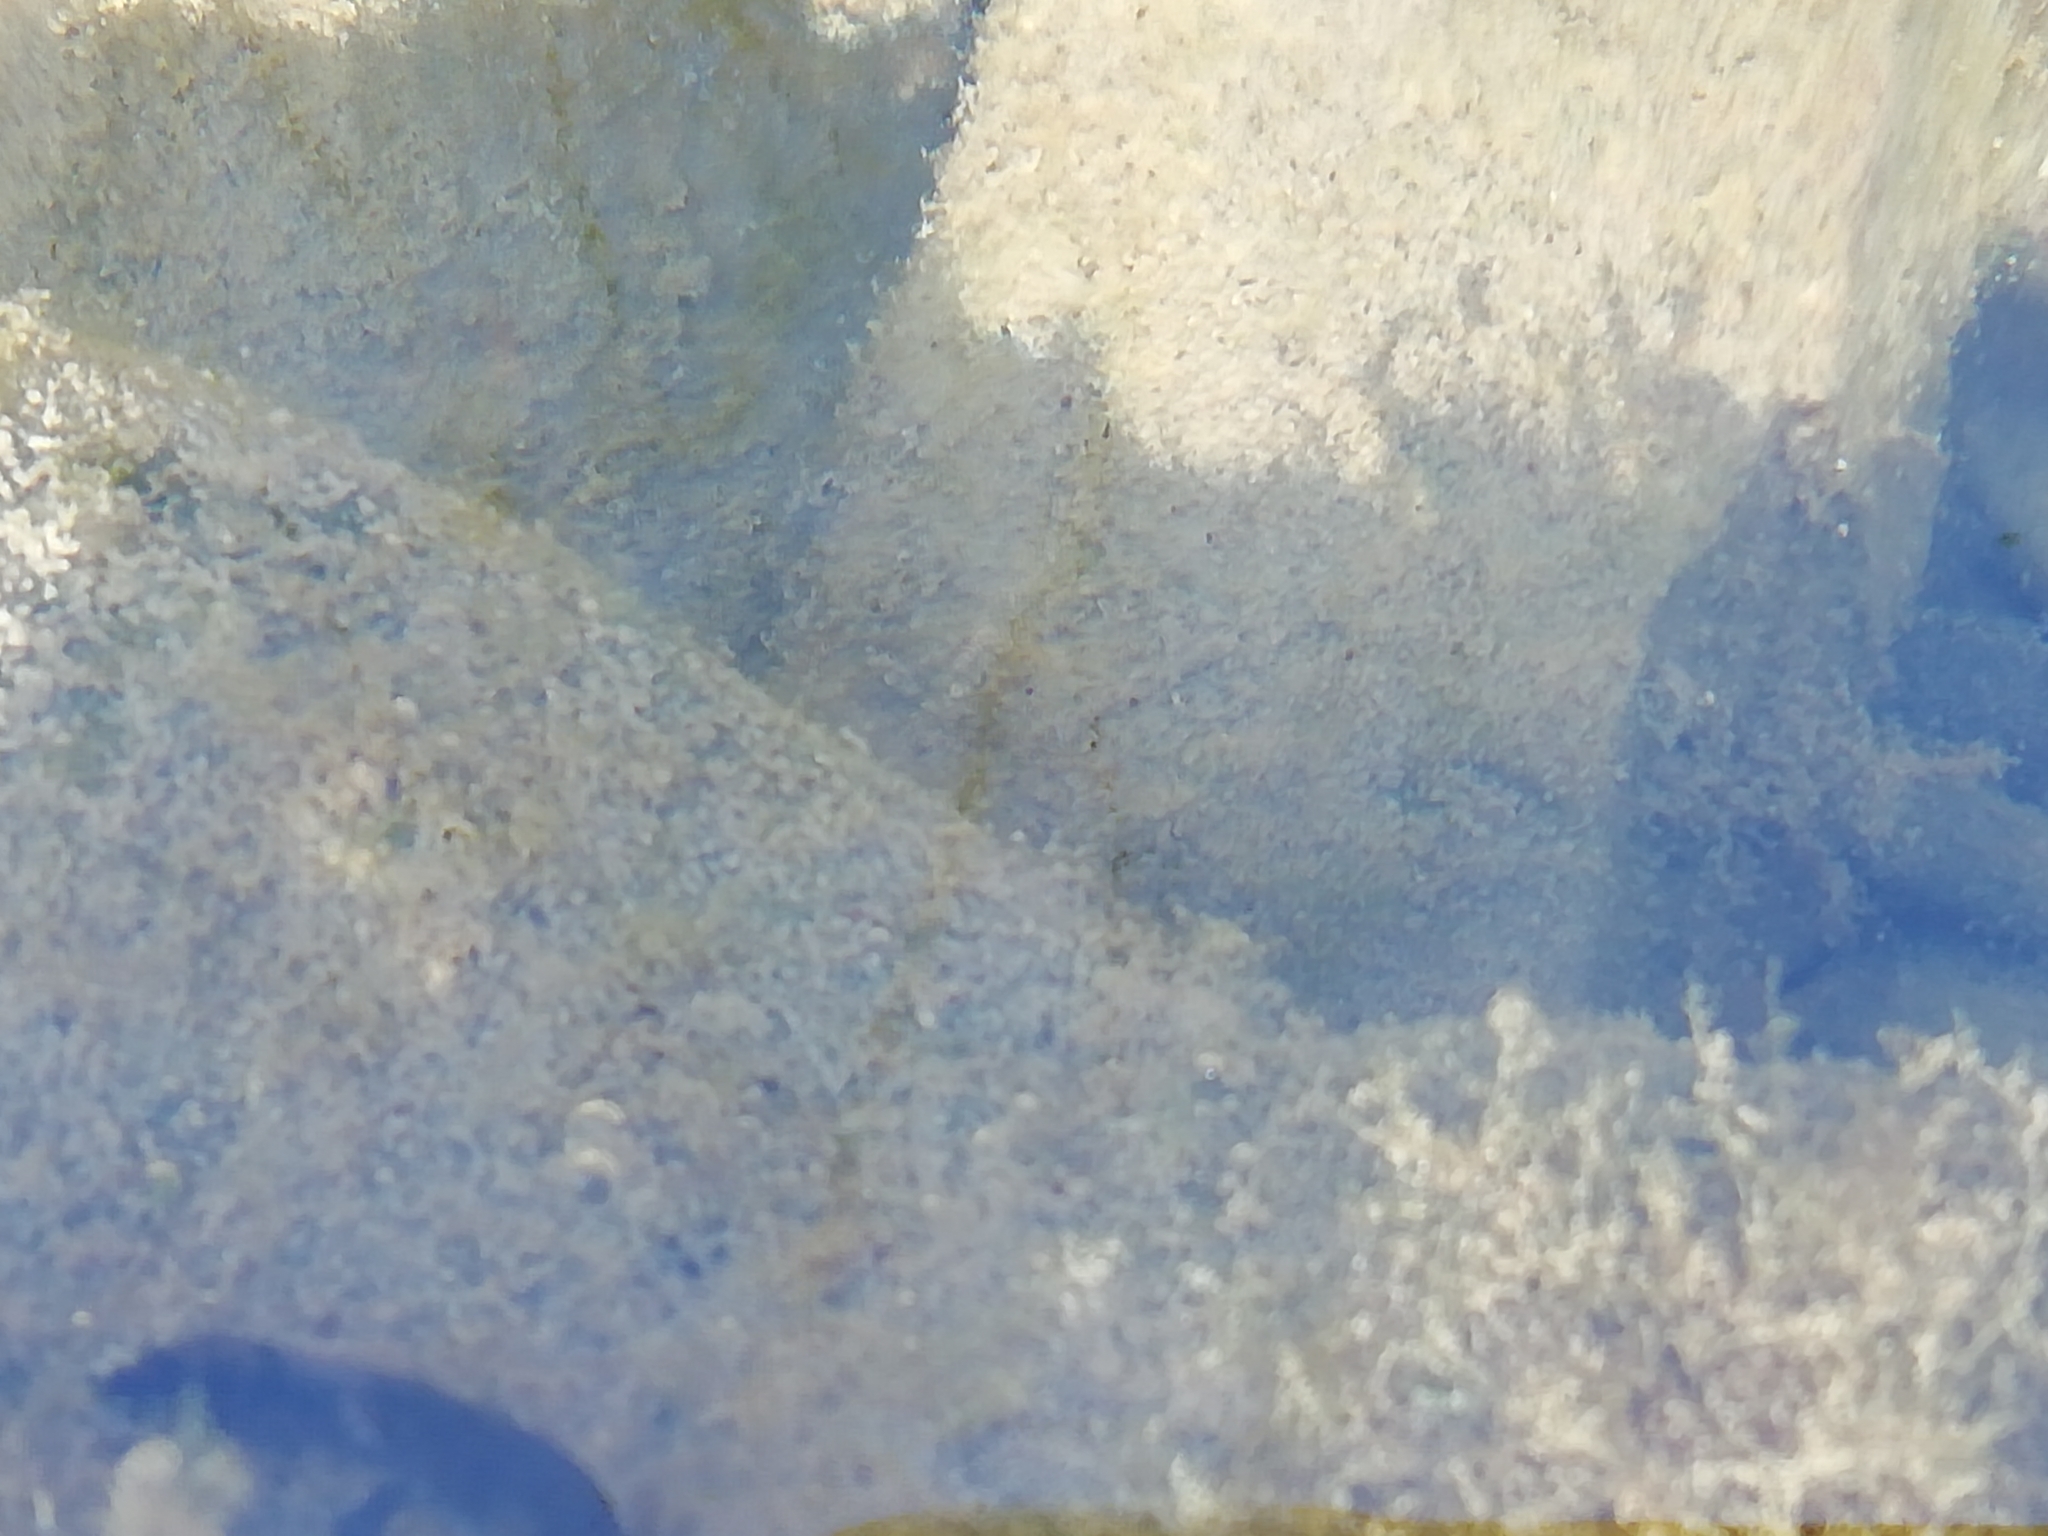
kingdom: Animalia
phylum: Chordata
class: Amphibia
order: Caudata
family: Salamandridae
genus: Salamandra
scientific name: Salamandra salamandra
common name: Fire salamander
